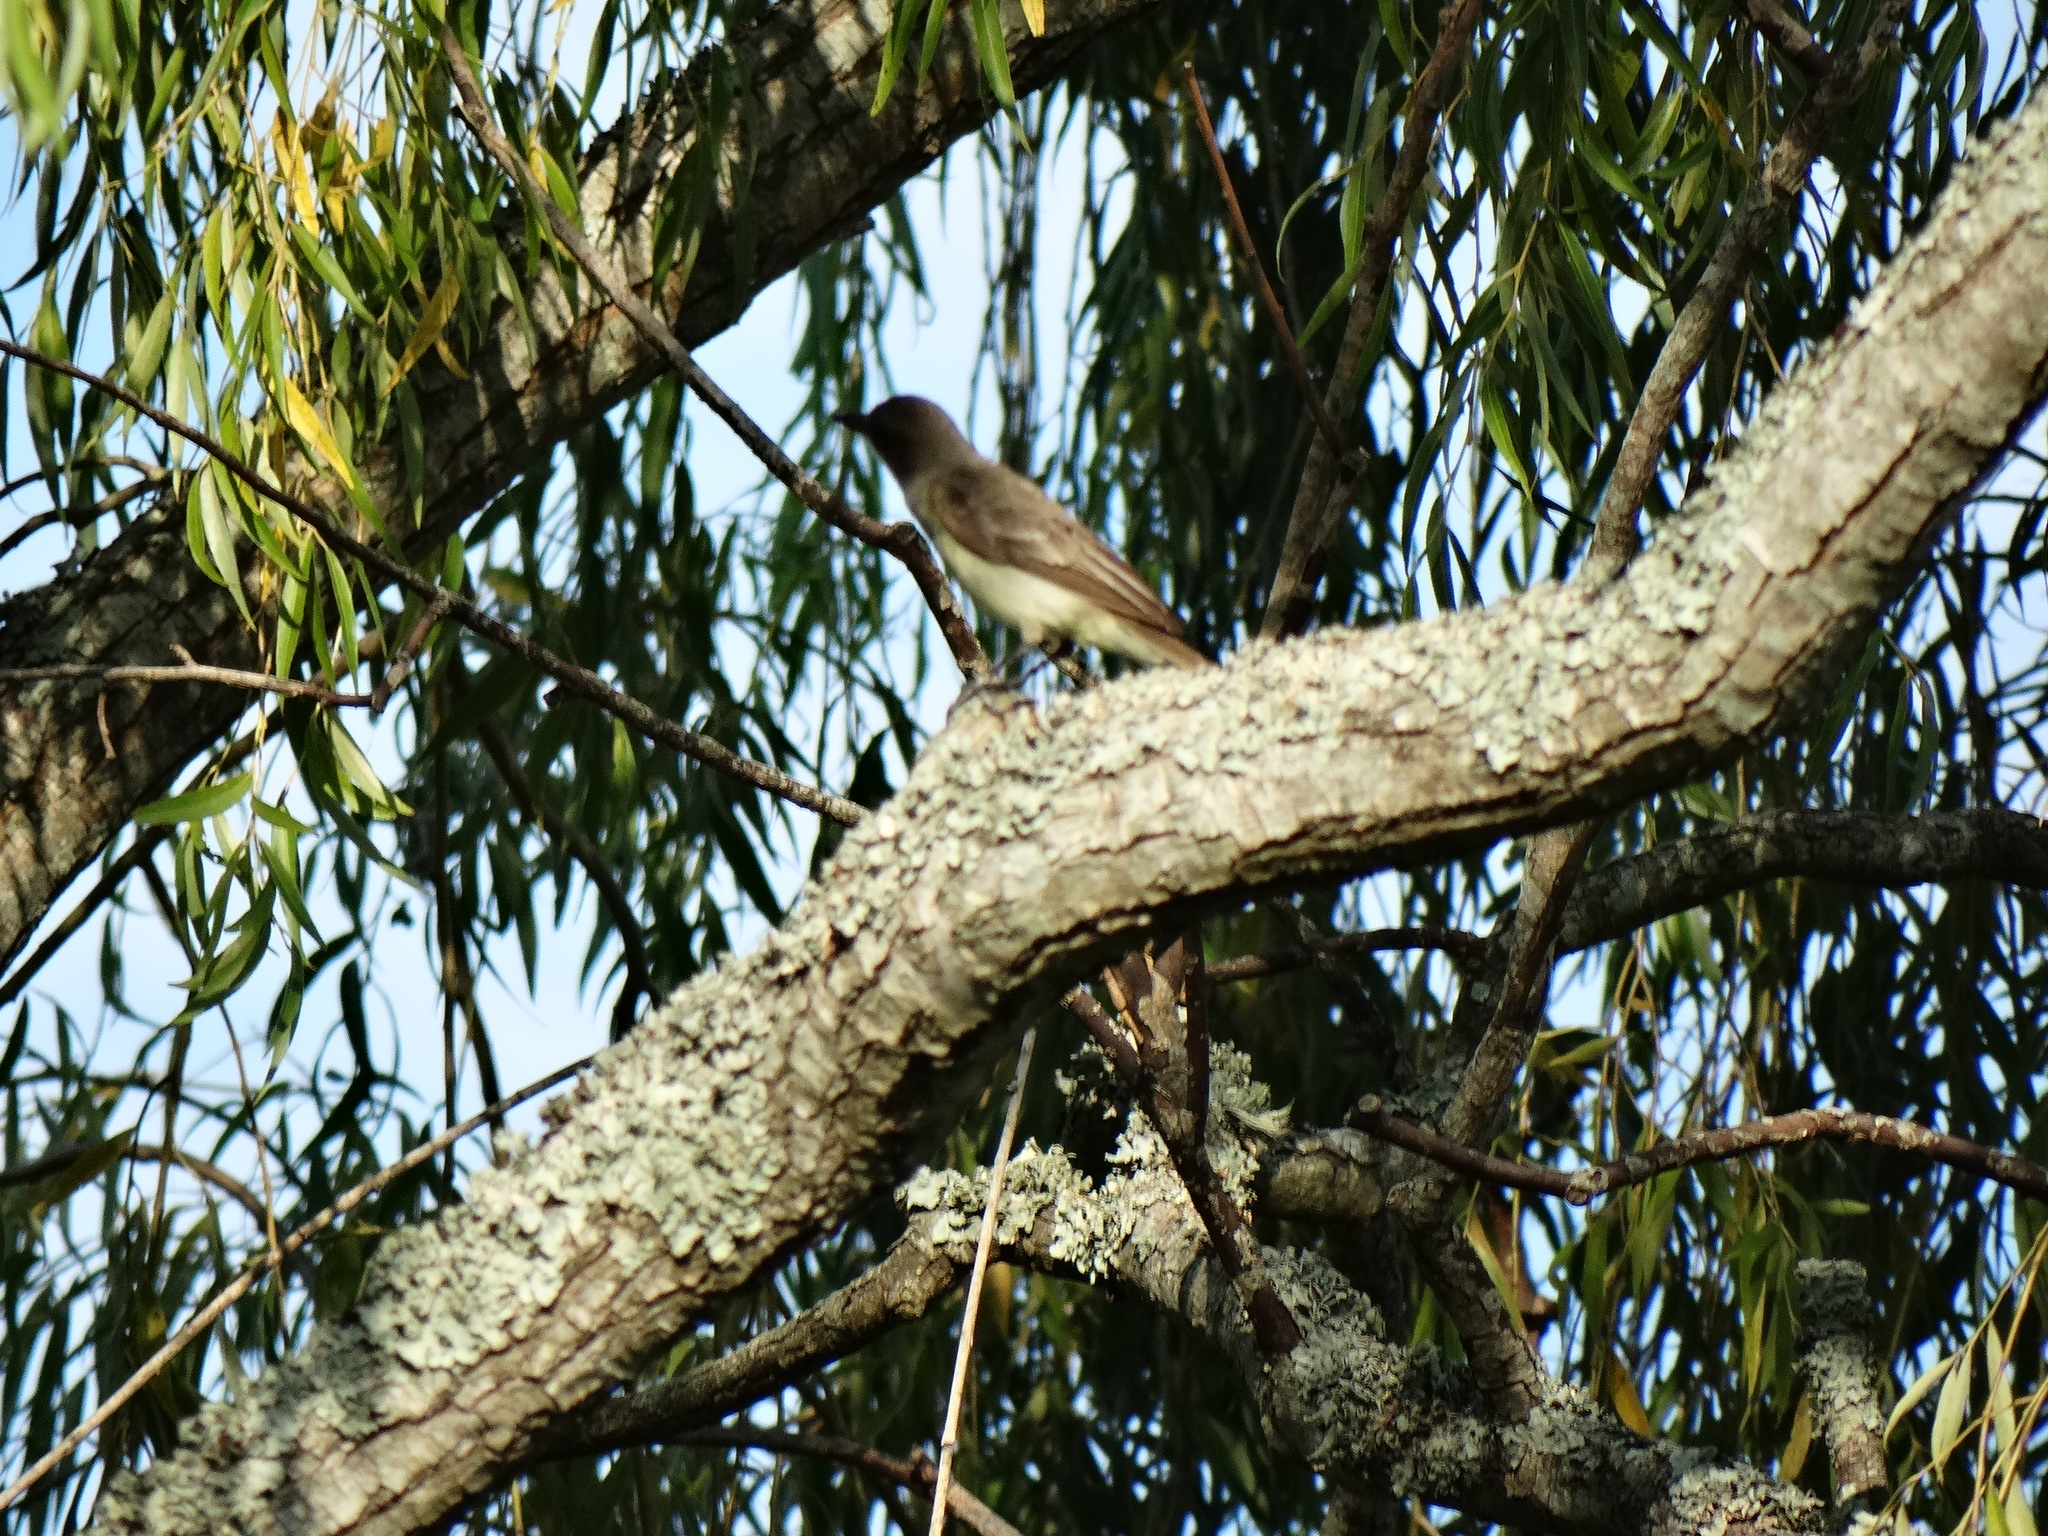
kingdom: Animalia
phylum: Chordata
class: Aves
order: Passeriformes
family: Tyrannidae
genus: Myiarchus
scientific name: Myiarchus swainsoni
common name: Swainson's flycatcher
